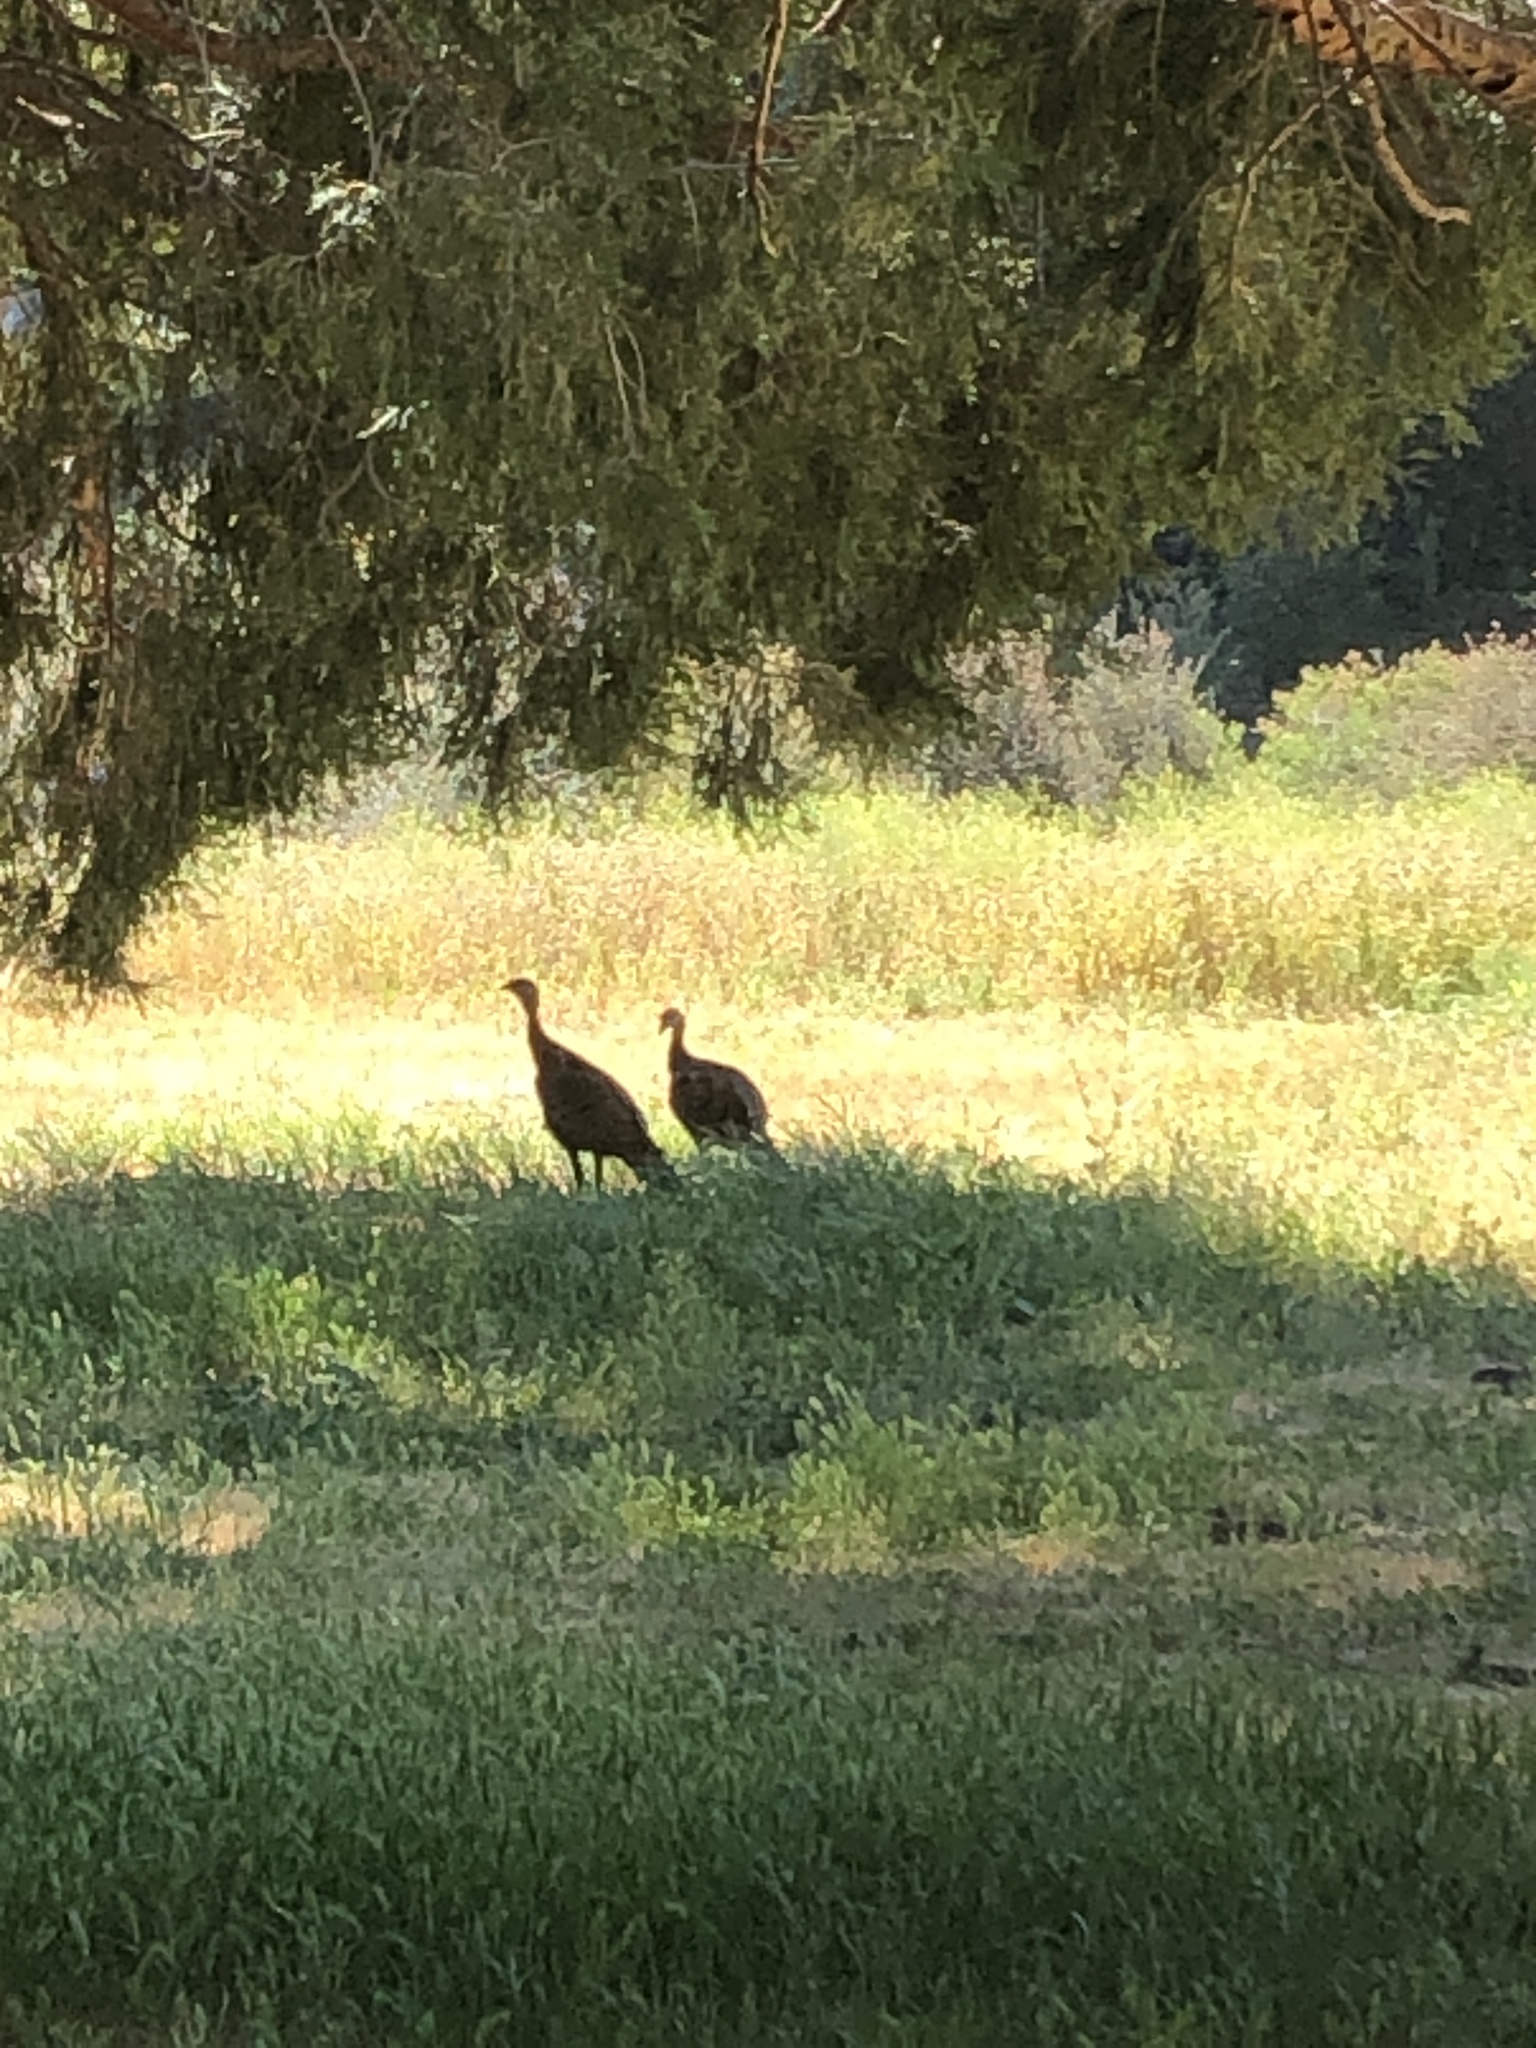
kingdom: Animalia
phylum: Chordata
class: Aves
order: Galliformes
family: Phasianidae
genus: Meleagris
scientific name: Meleagris gallopavo
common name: Wild turkey
